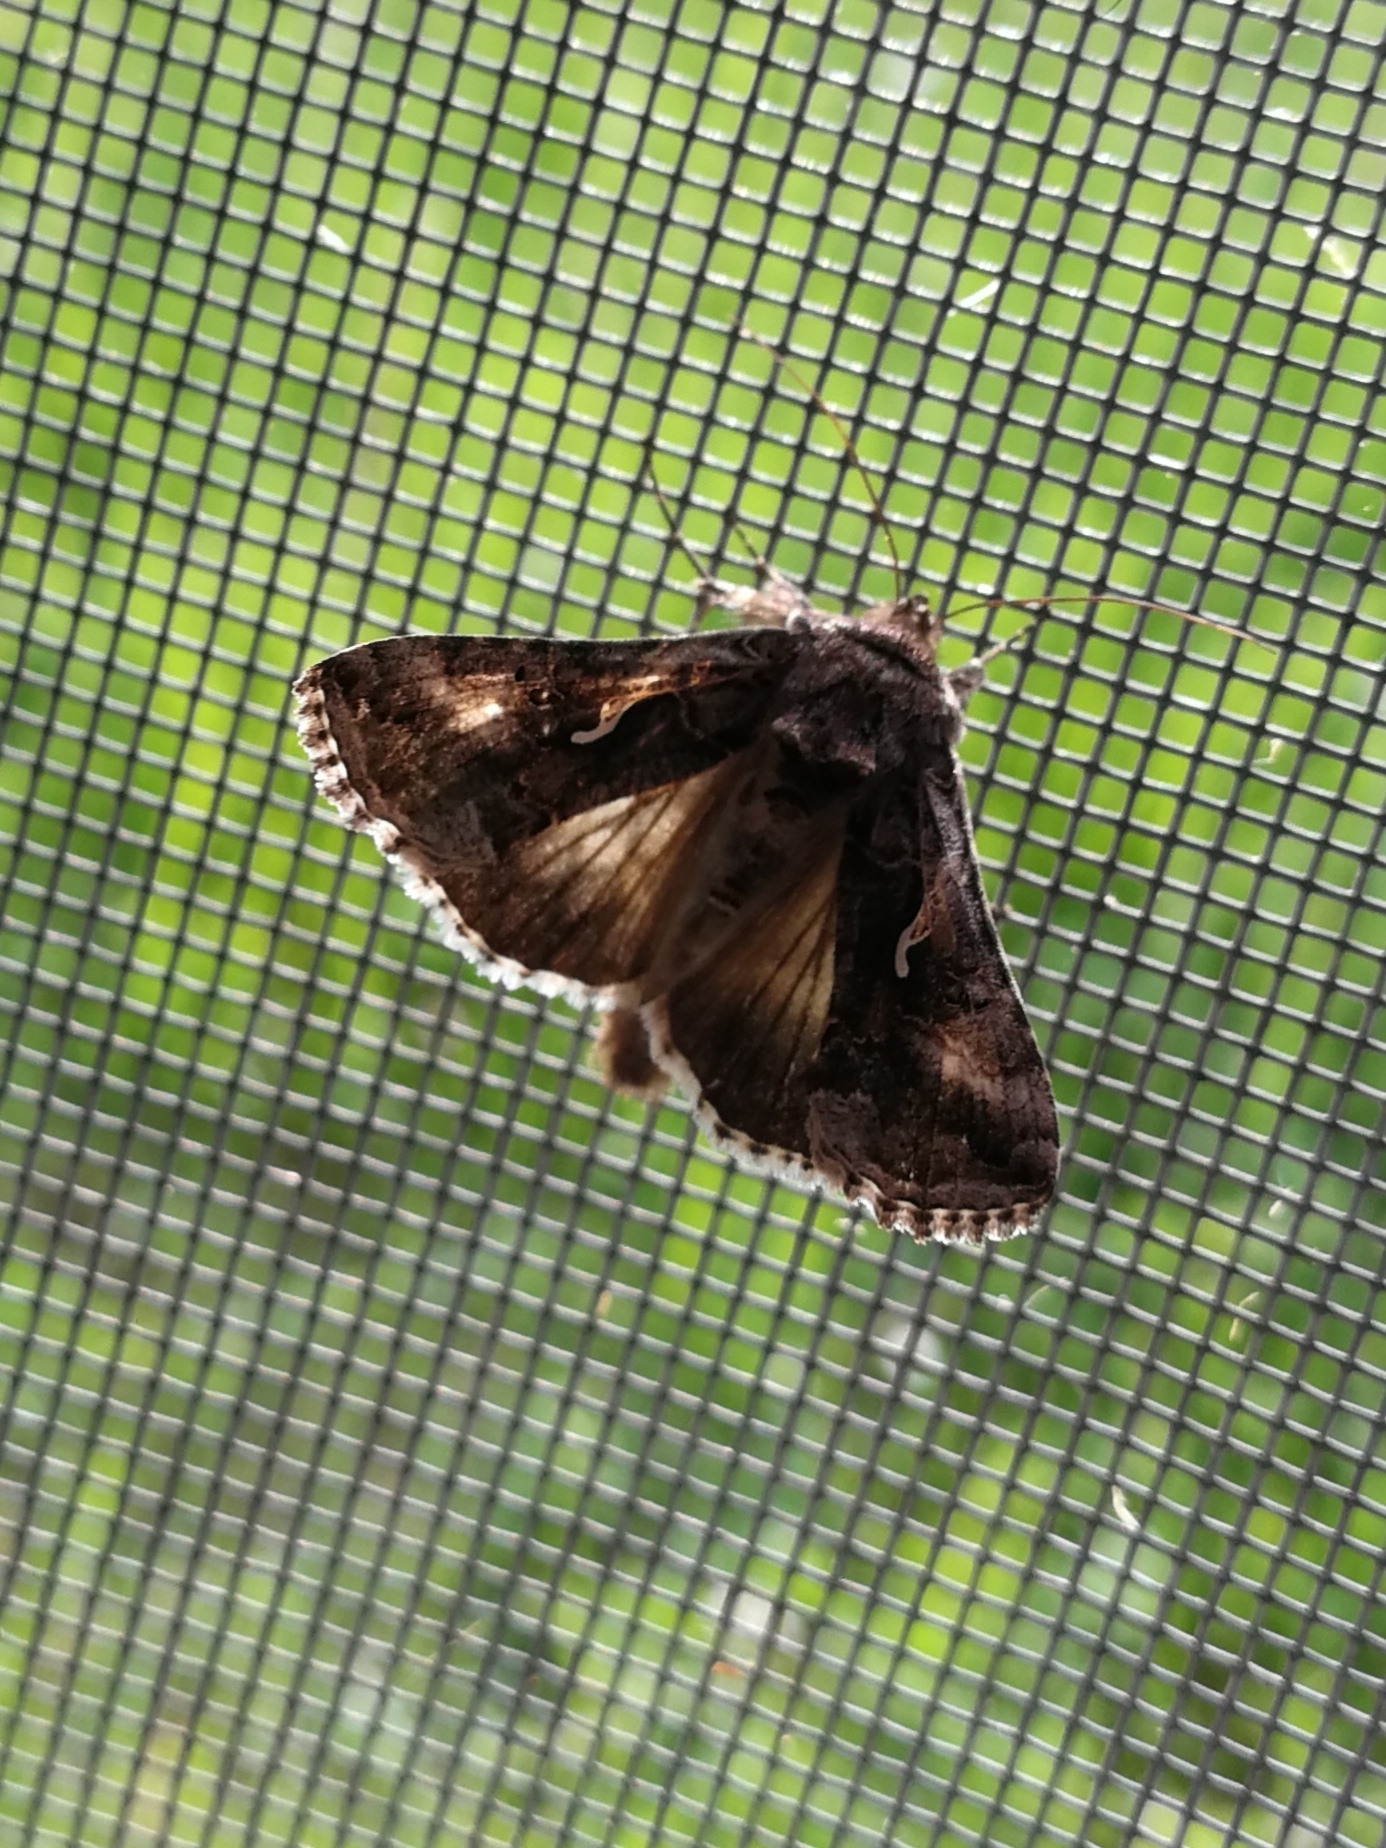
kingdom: Animalia
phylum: Arthropoda
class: Insecta
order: Lepidoptera
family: Noctuidae
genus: Autographa
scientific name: Autographa gamma
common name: Silver y
